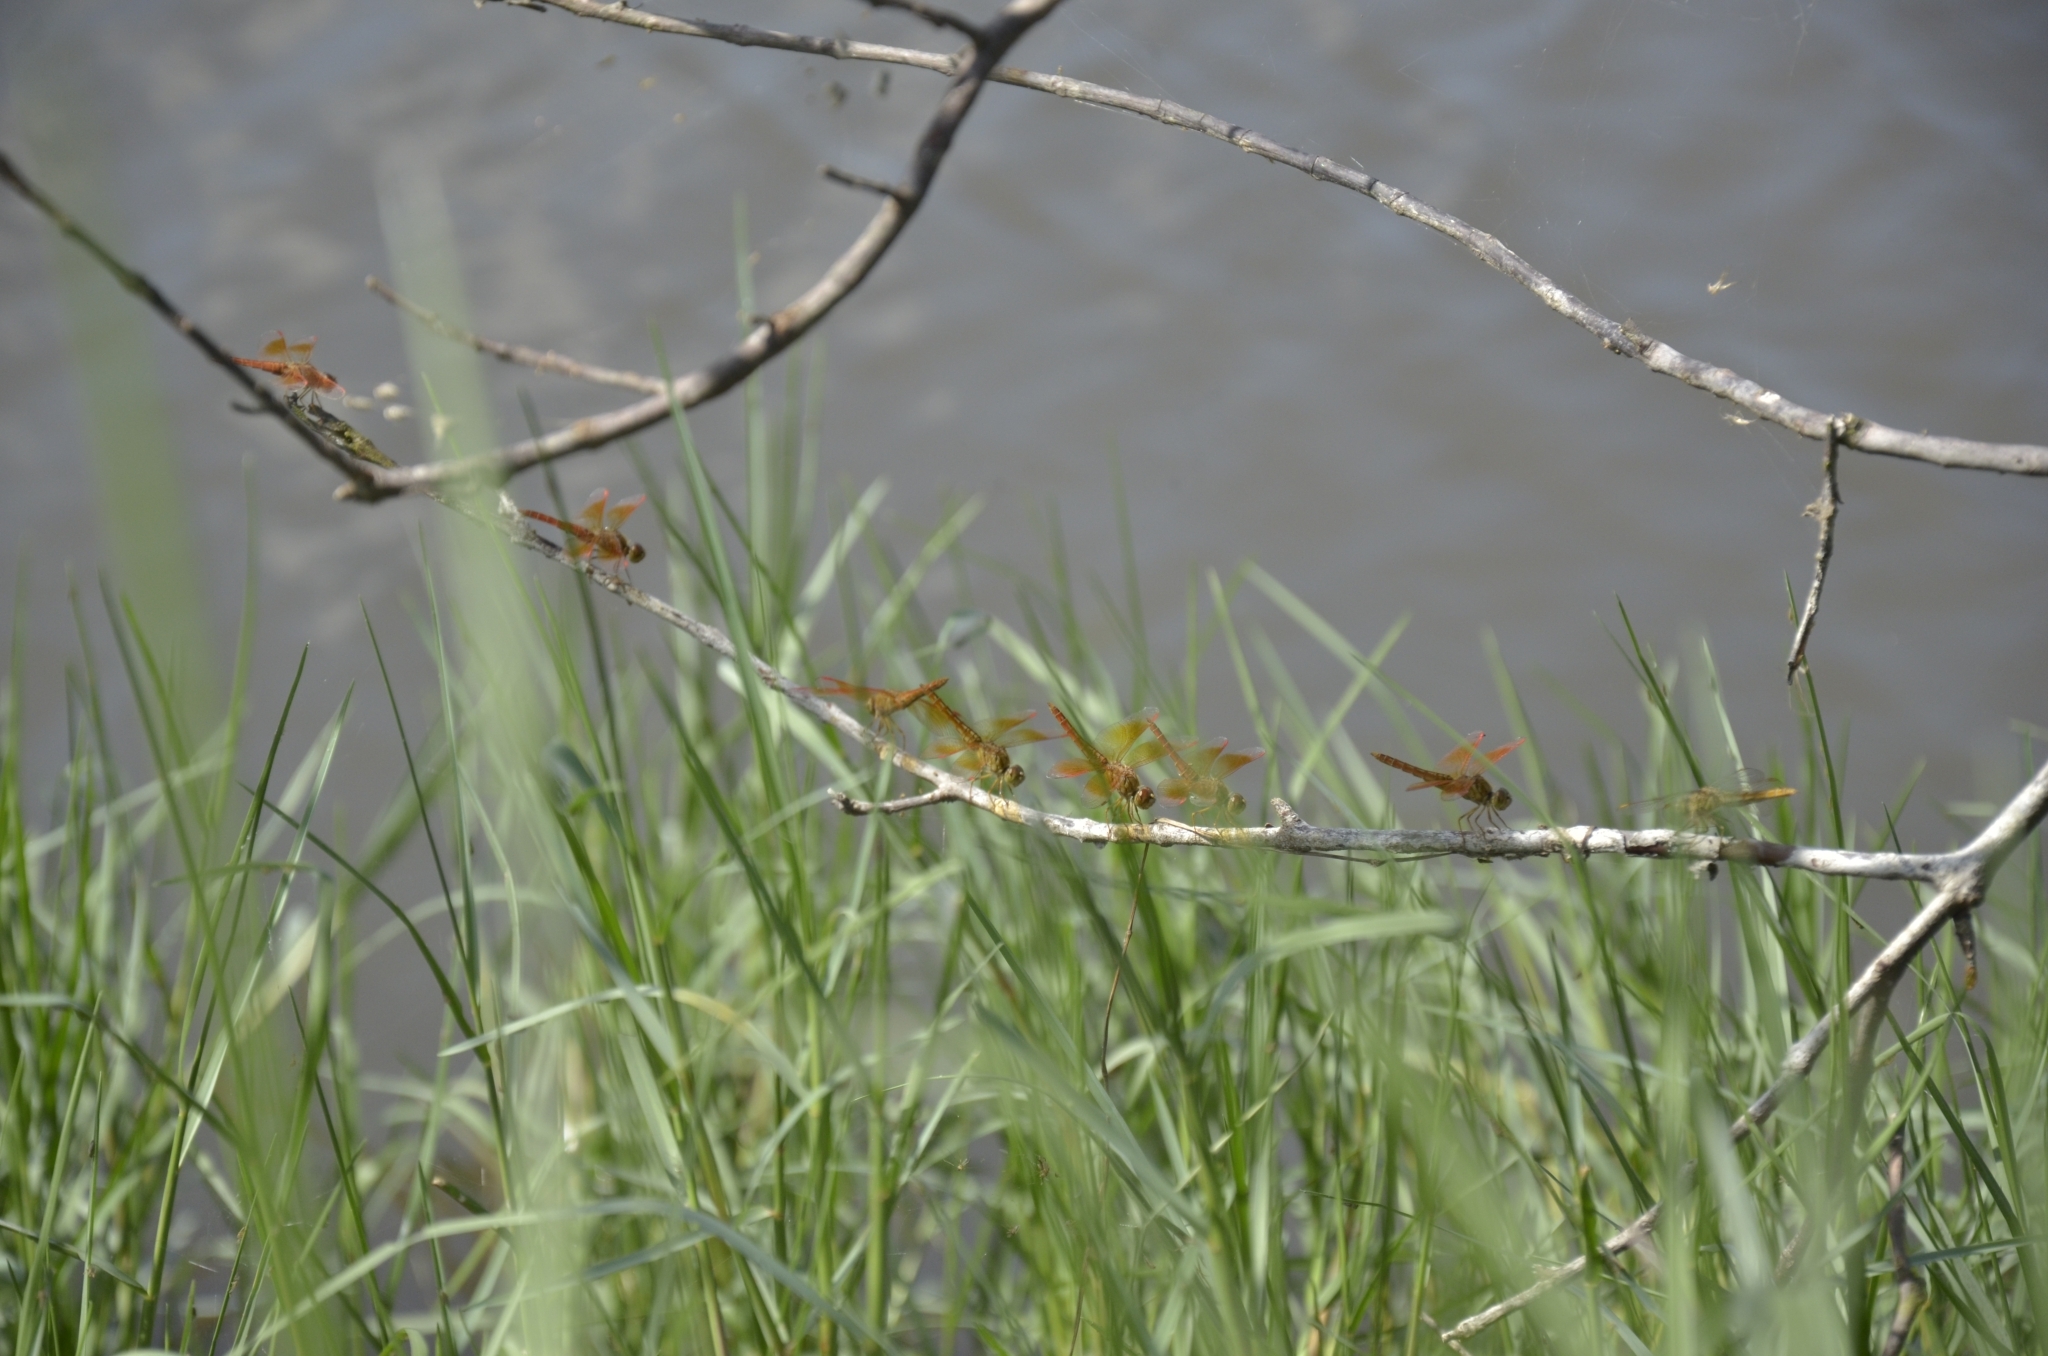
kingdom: Animalia
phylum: Arthropoda
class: Insecta
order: Odonata
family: Libellulidae
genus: Brachythemis
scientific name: Brachythemis contaminata
